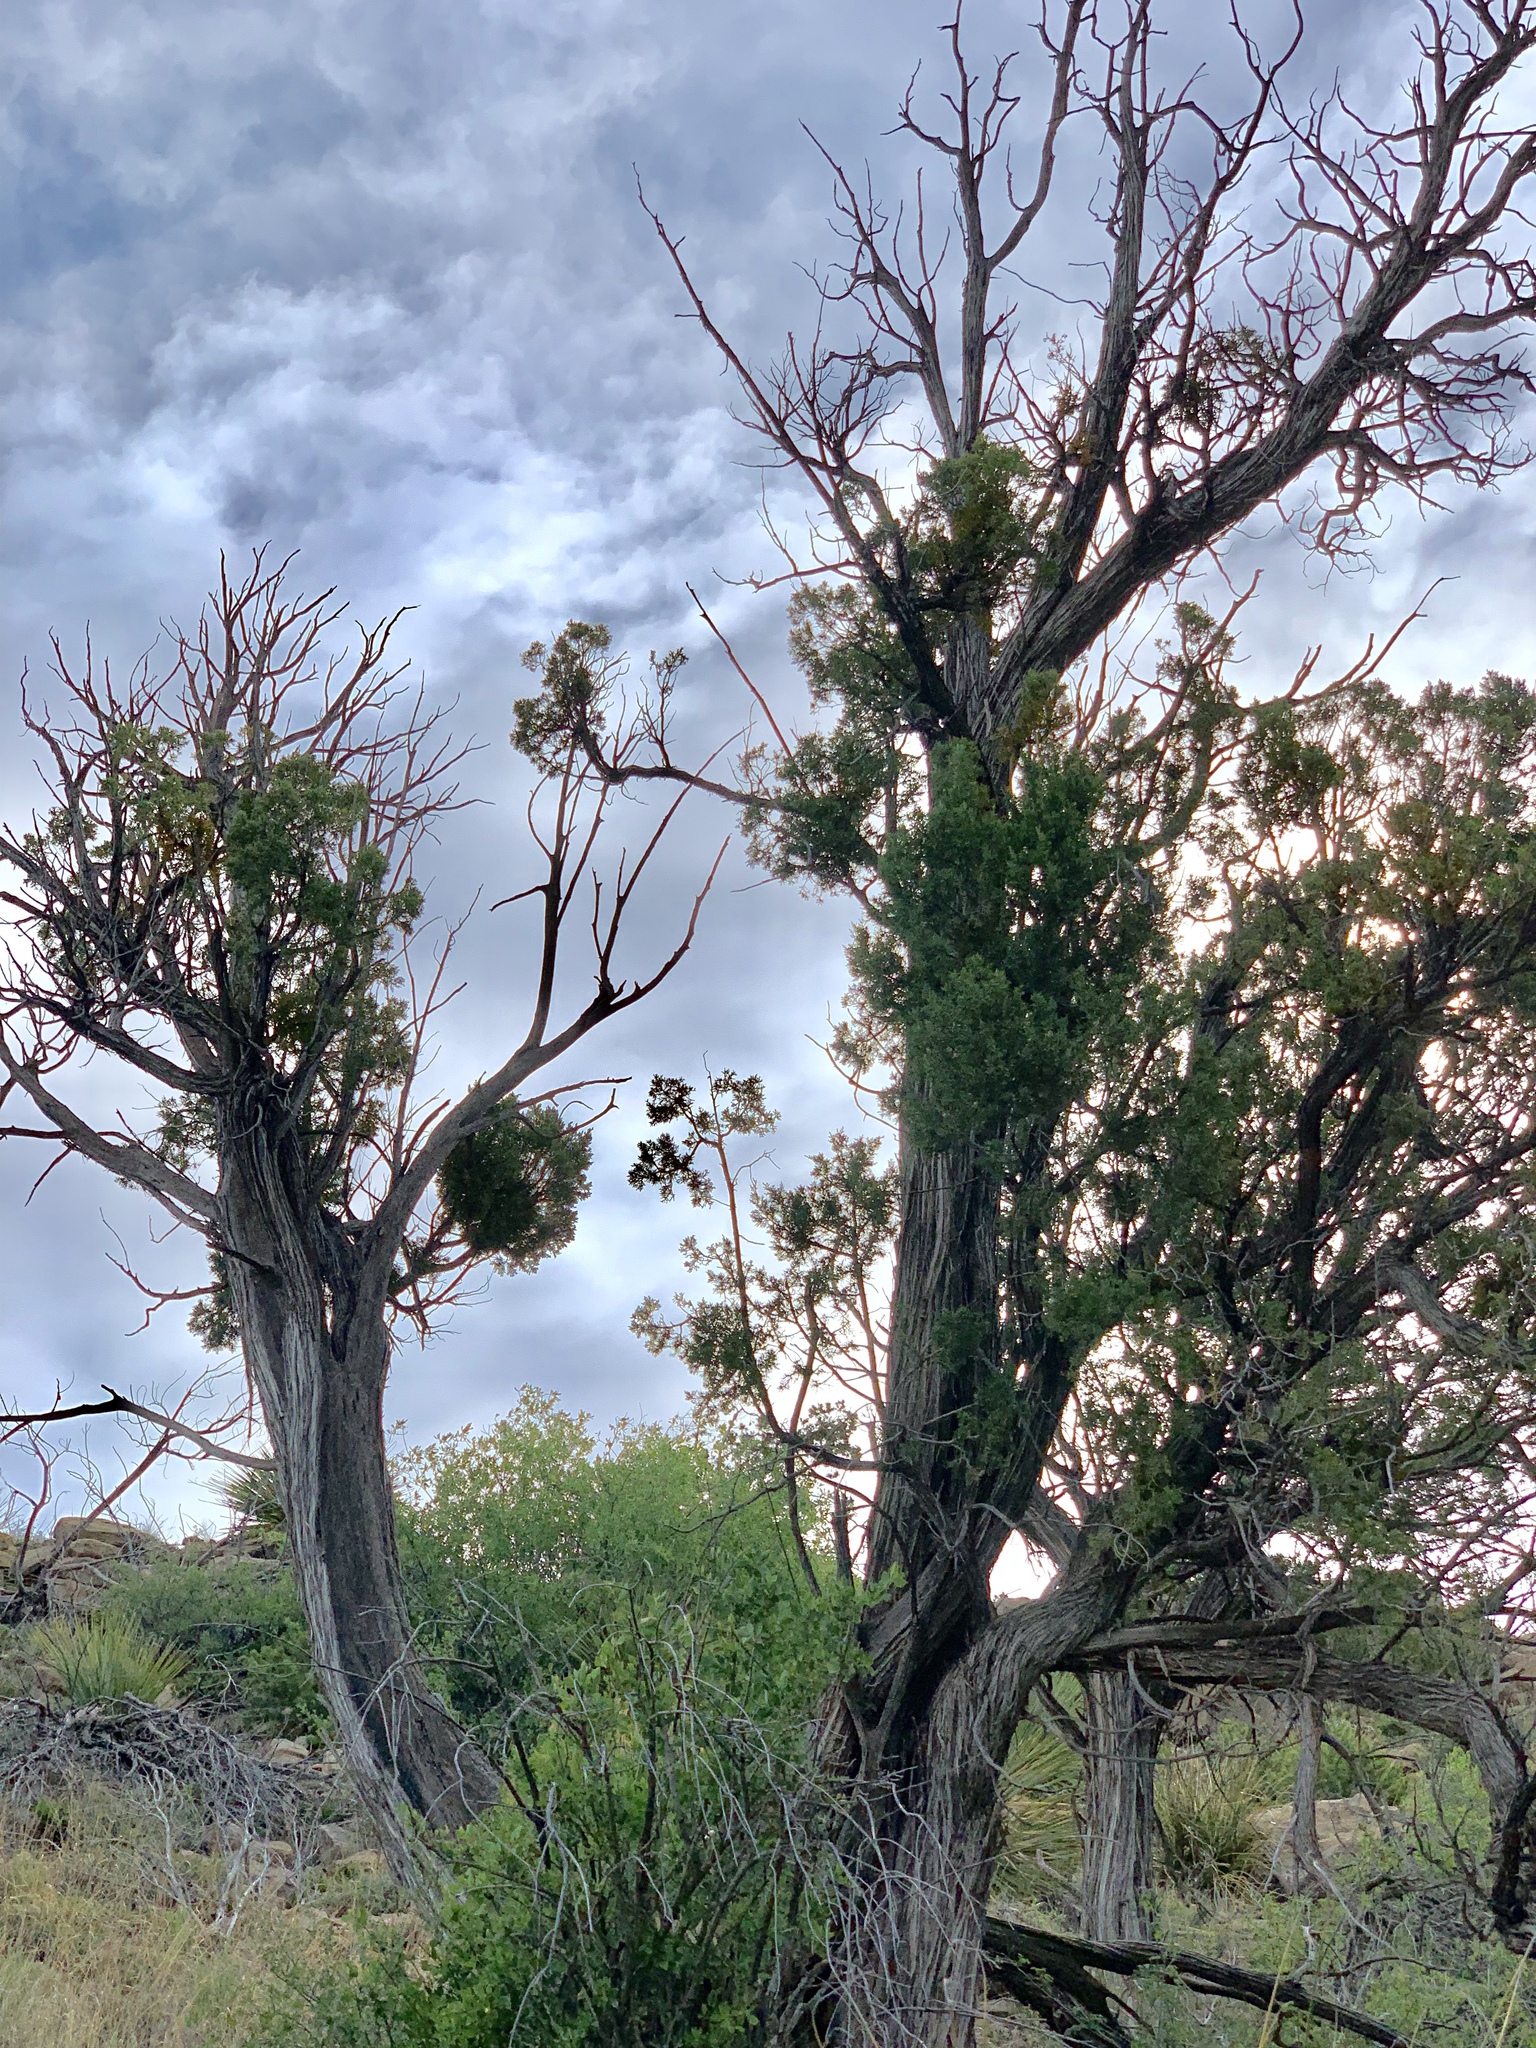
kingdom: Plantae
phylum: Tracheophyta
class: Pinopsida
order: Pinales
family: Cupressaceae
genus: Juniperus
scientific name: Juniperus monosperma
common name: One-seed juniper
